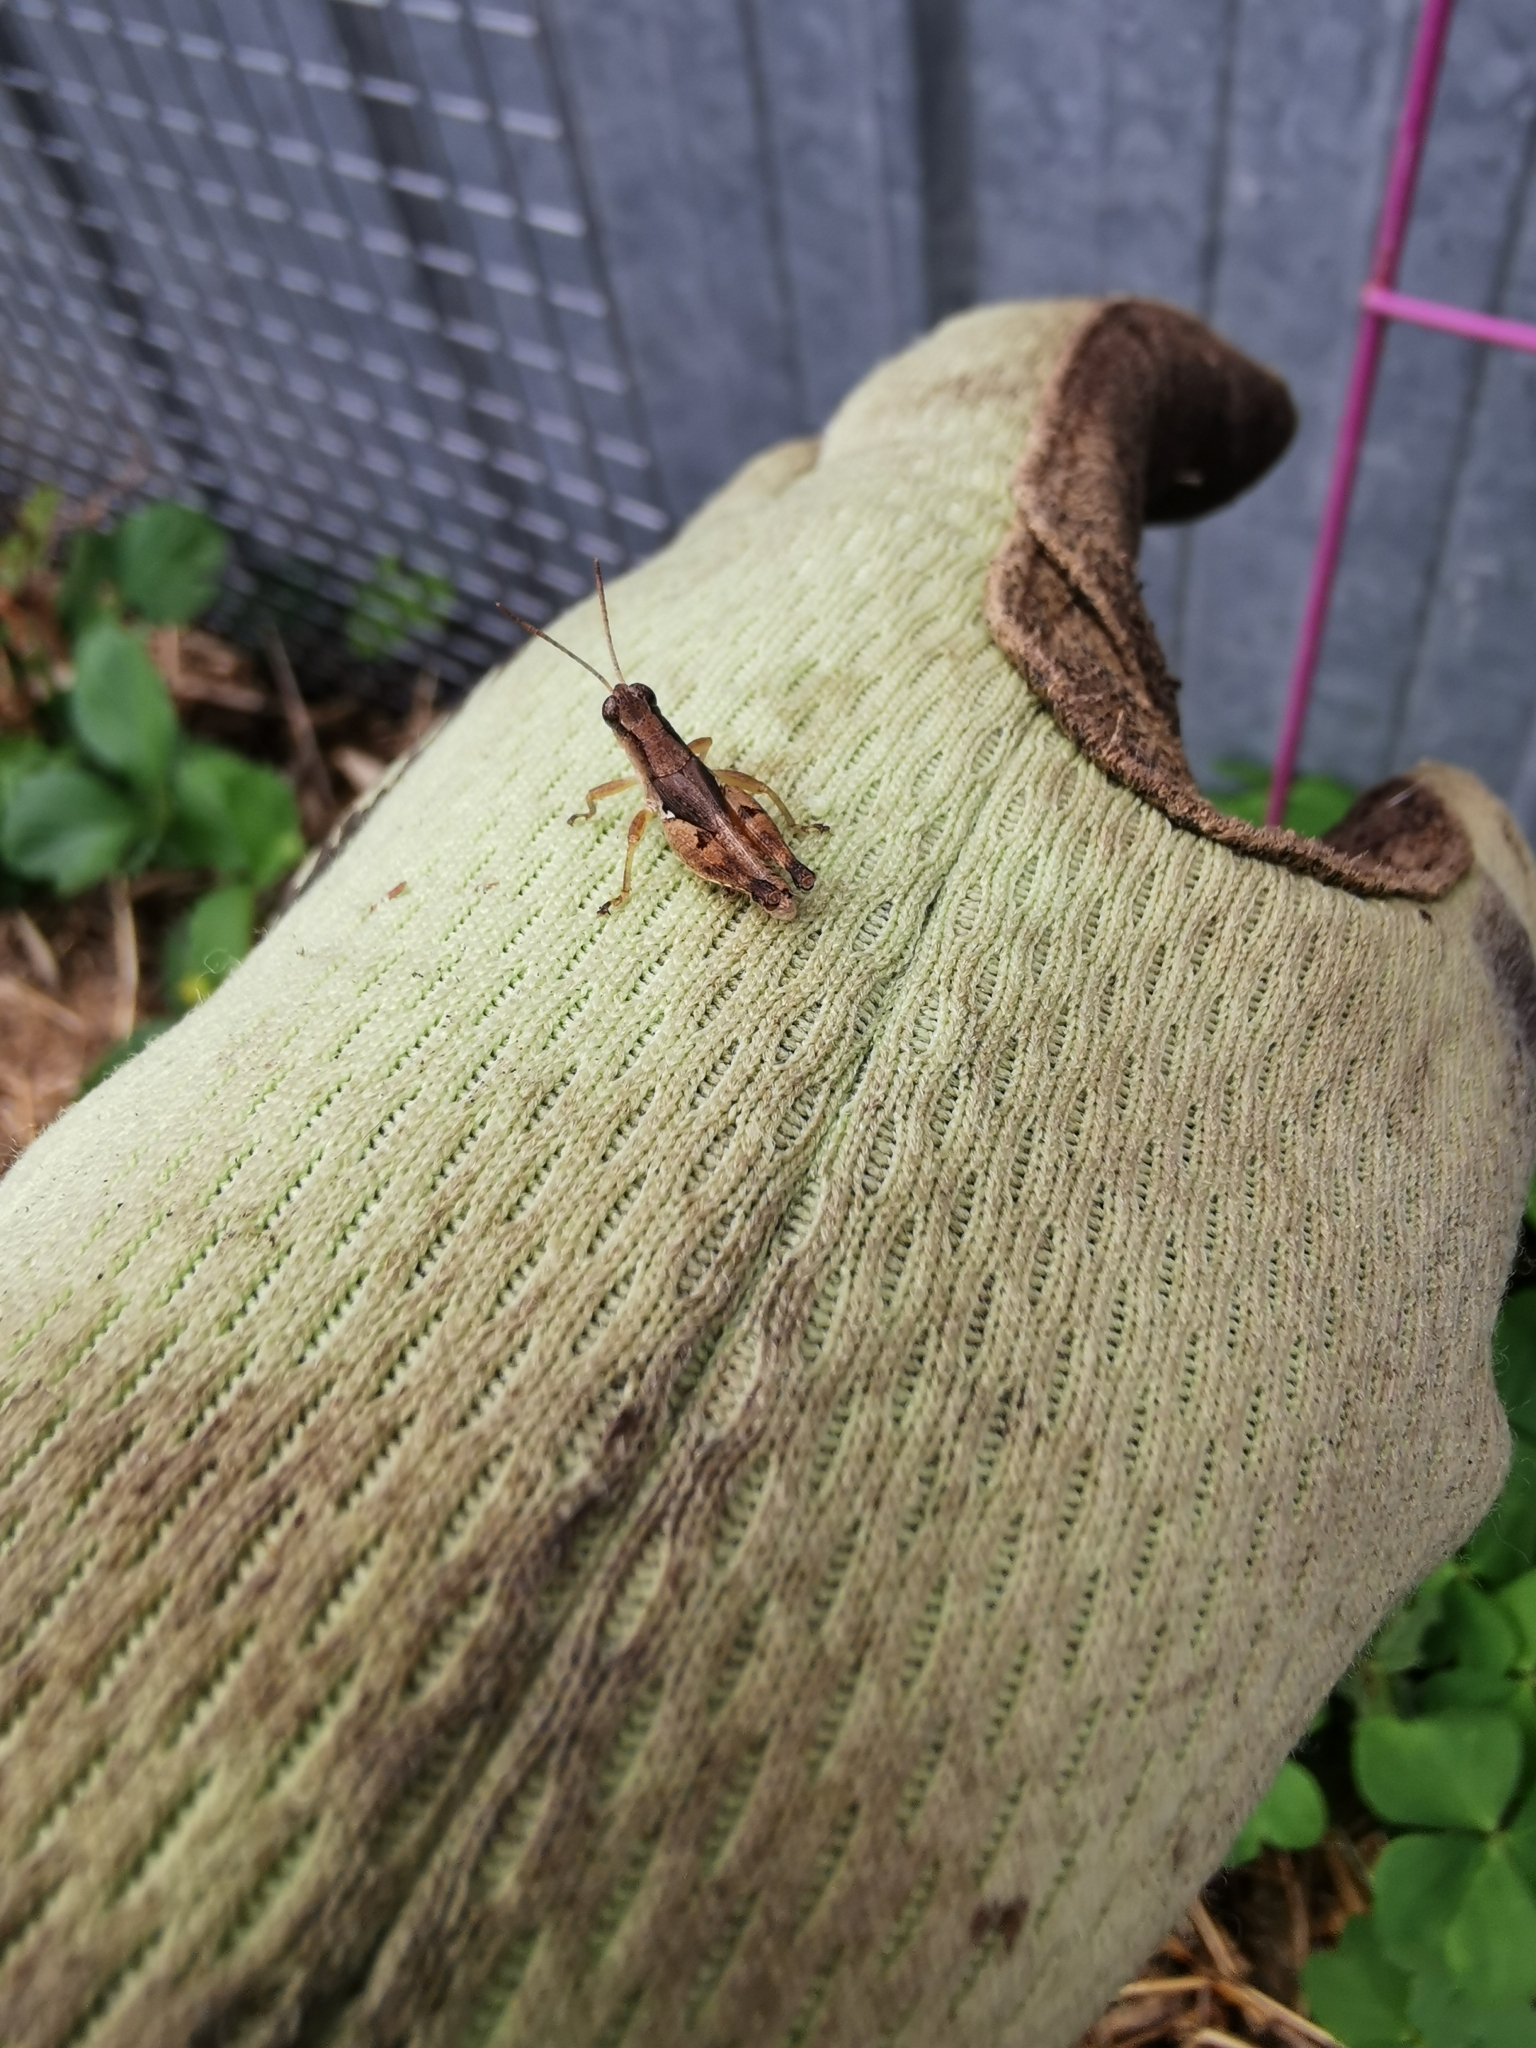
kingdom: Animalia
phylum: Arthropoda
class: Insecta
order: Orthoptera
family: Acrididae
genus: Phaulacridium
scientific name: Phaulacridium vittatum
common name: Wingless grasshopper
